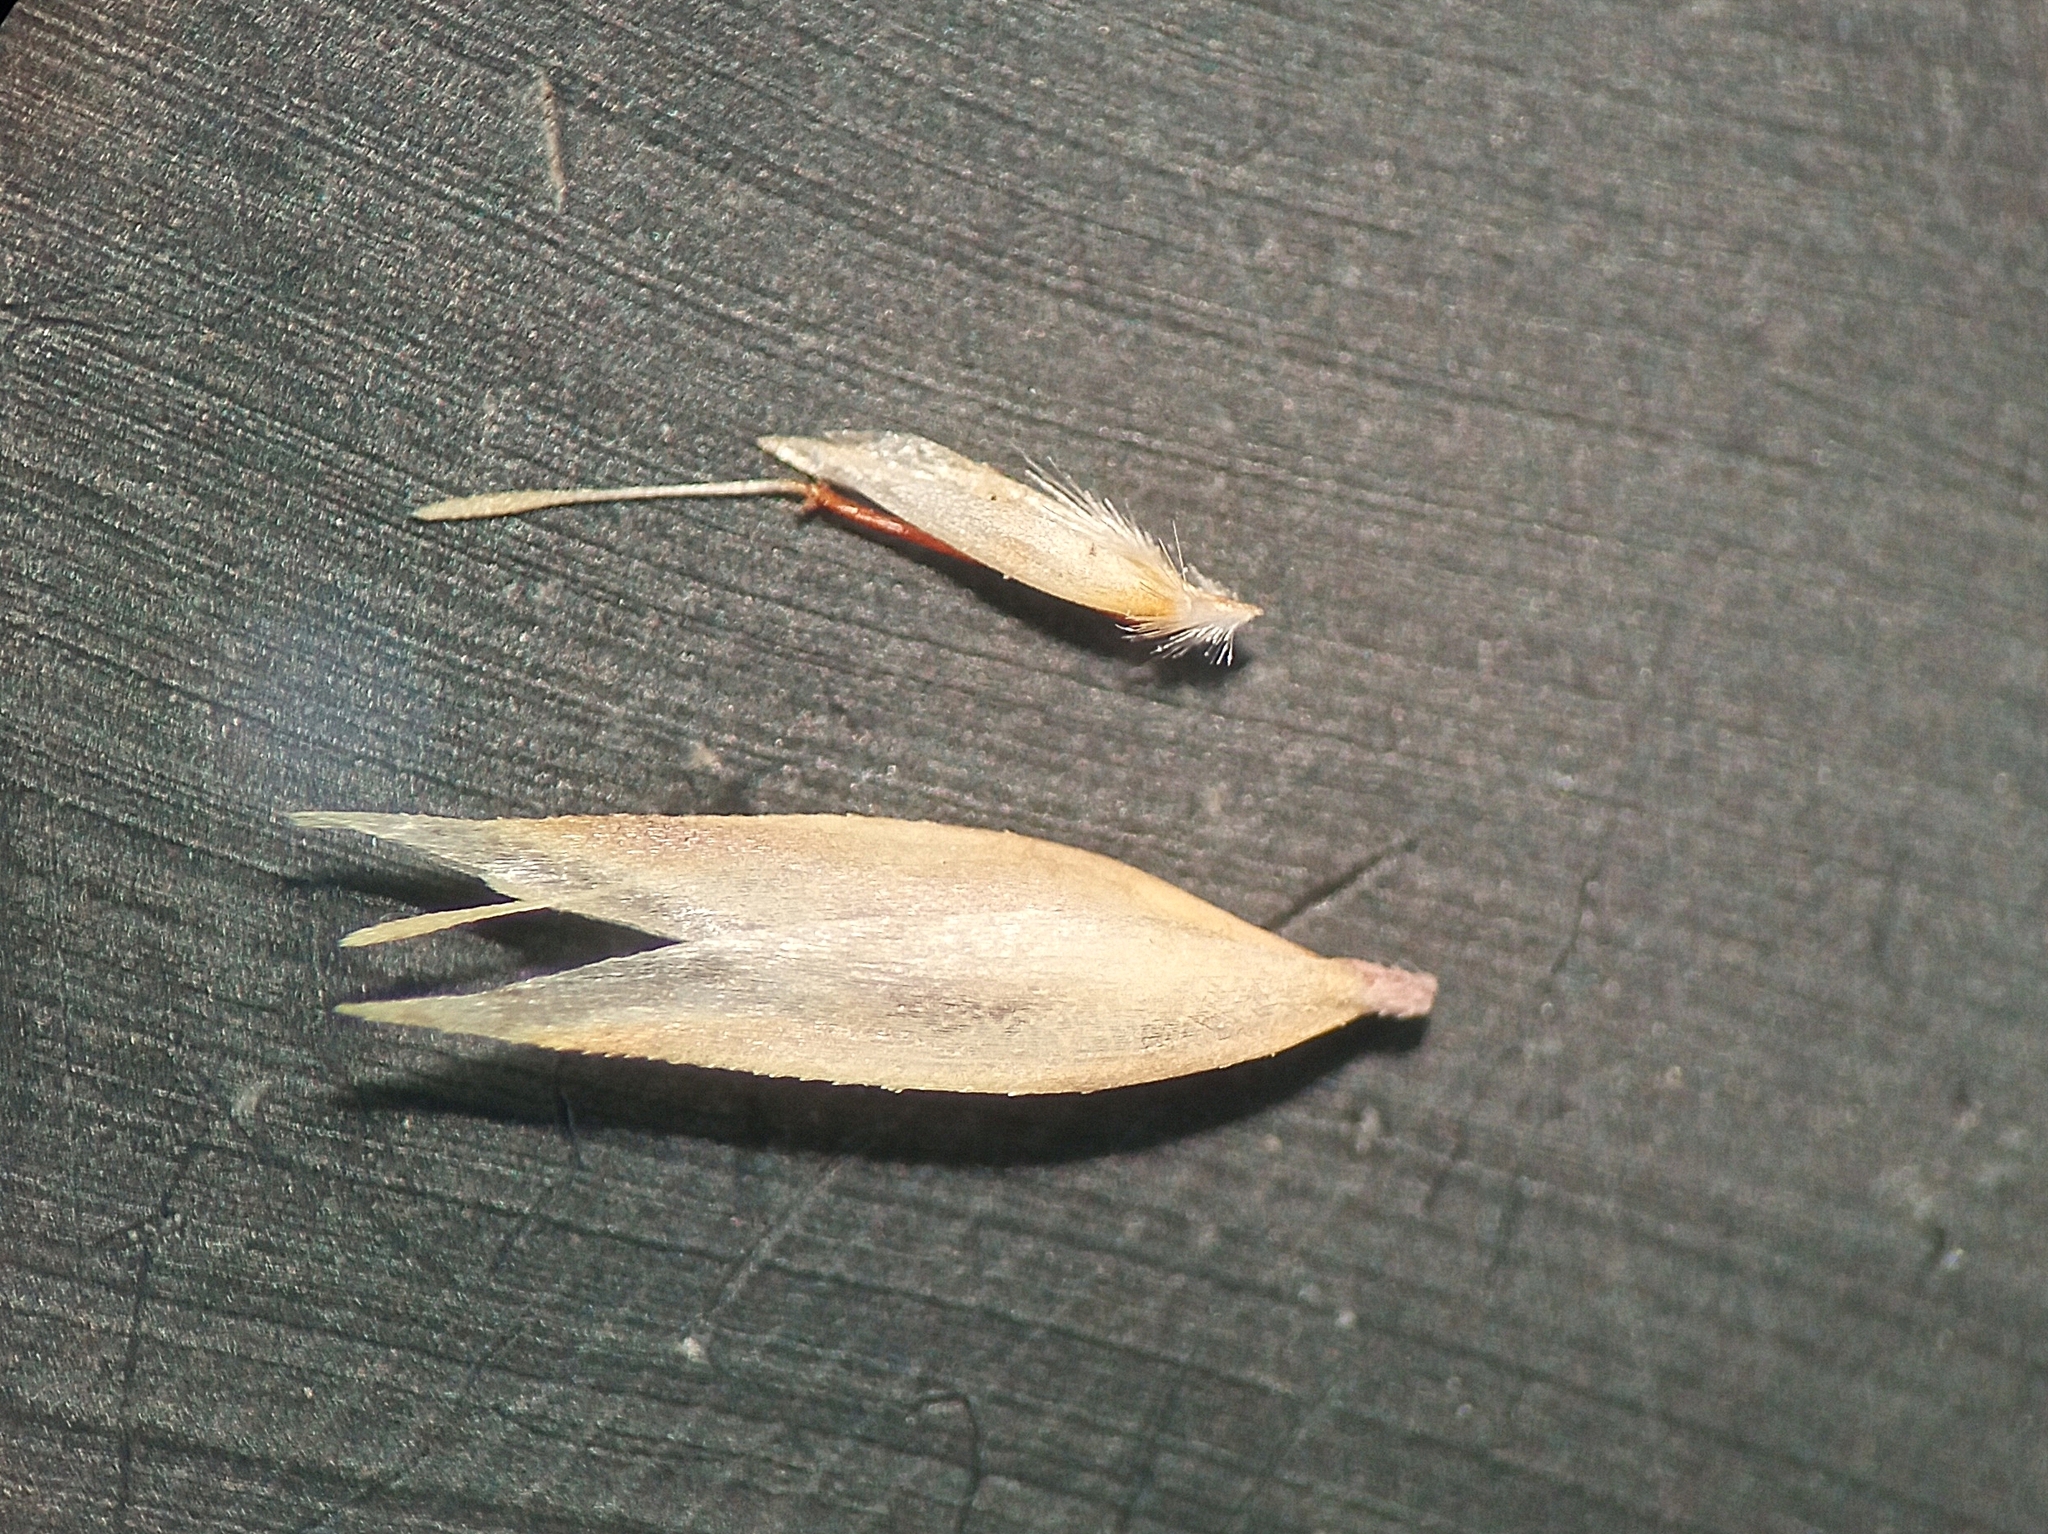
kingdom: Plantae
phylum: Tracheophyta
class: Liliopsida
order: Poales
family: Poaceae
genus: Corynephorus
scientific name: Corynephorus canescens
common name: Grey hair-grass
